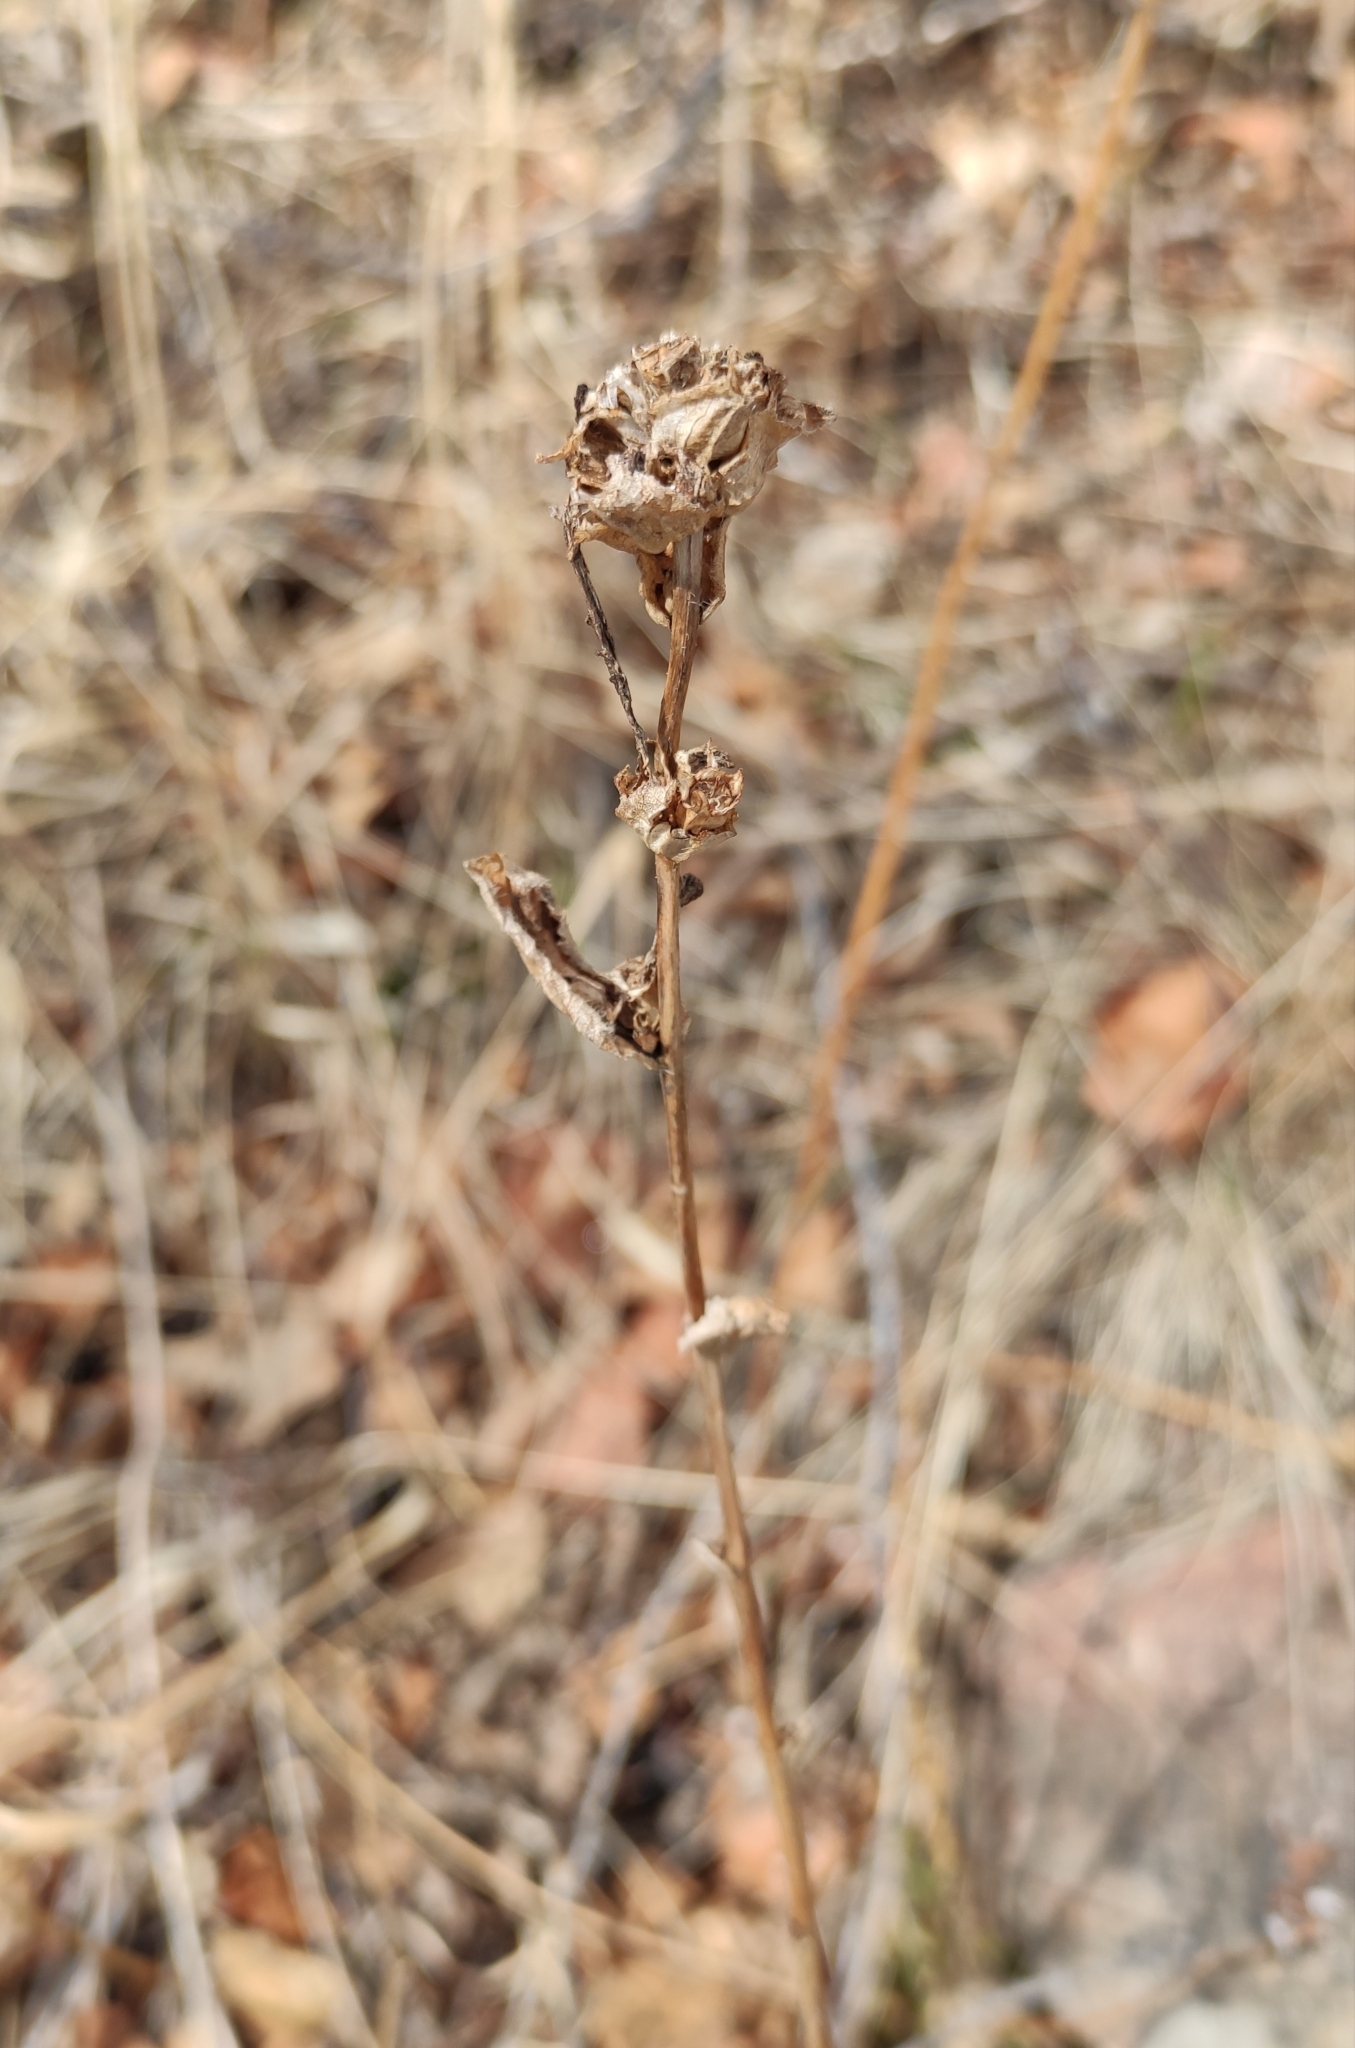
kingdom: Plantae
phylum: Tracheophyta
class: Magnoliopsida
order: Asterales
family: Campanulaceae
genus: Campanula
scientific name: Campanula glomerata
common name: Clustered bellflower
